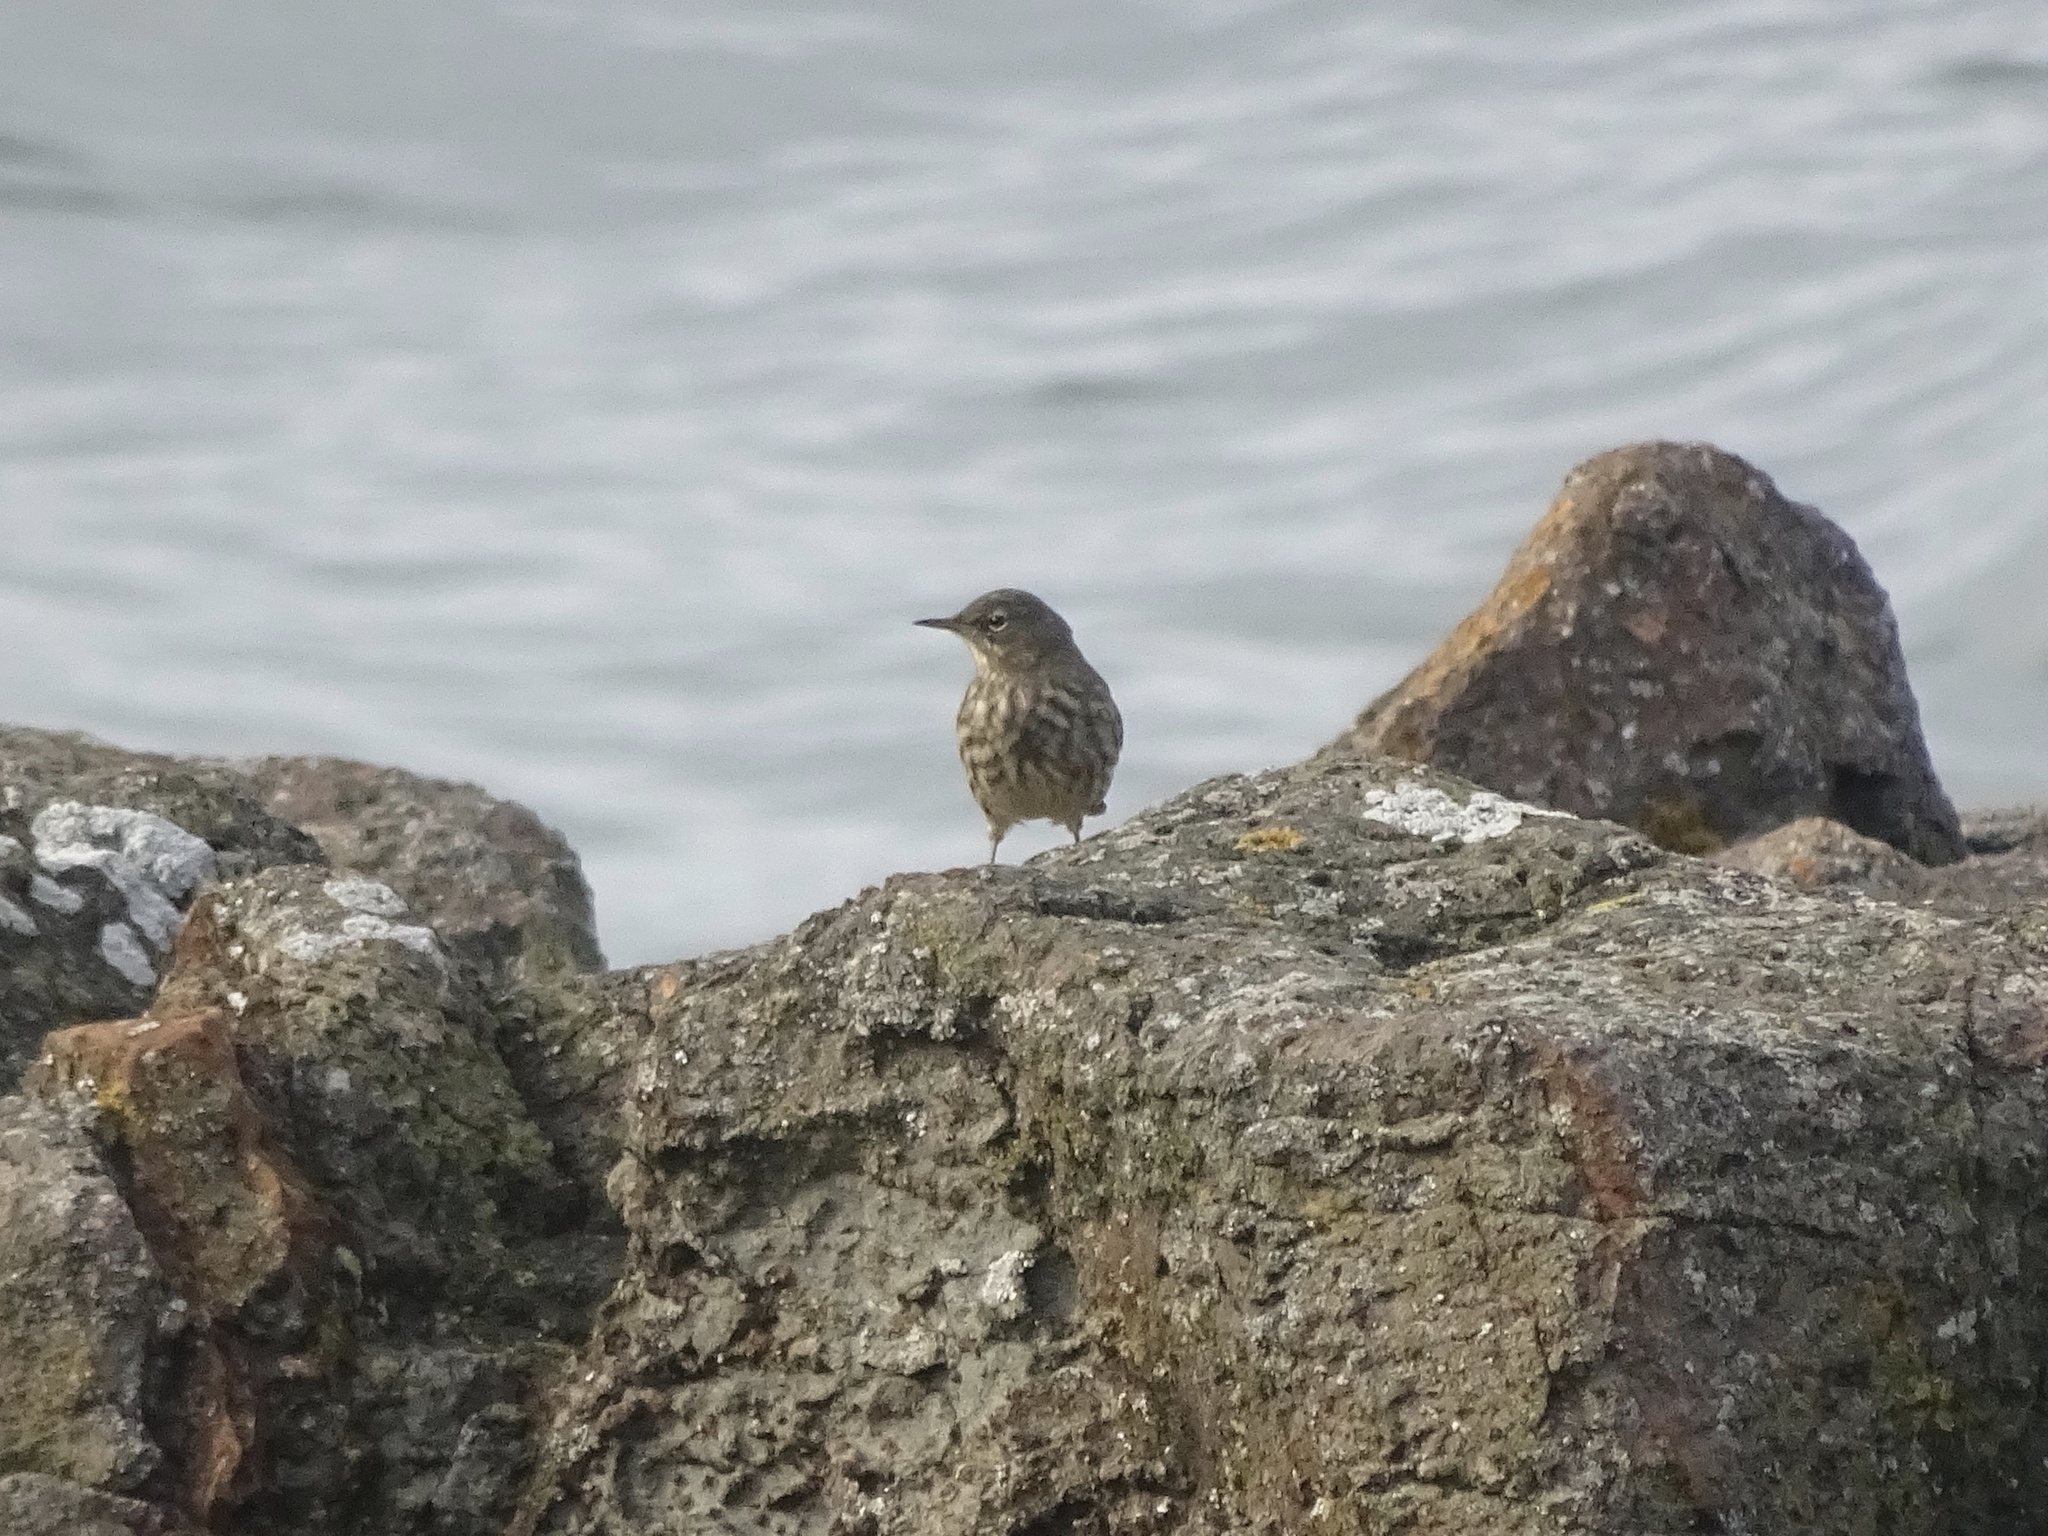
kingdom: Animalia
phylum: Chordata
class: Aves
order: Passeriformes
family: Motacillidae
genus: Anthus
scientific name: Anthus petrosus
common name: Eurasian rock pipit
